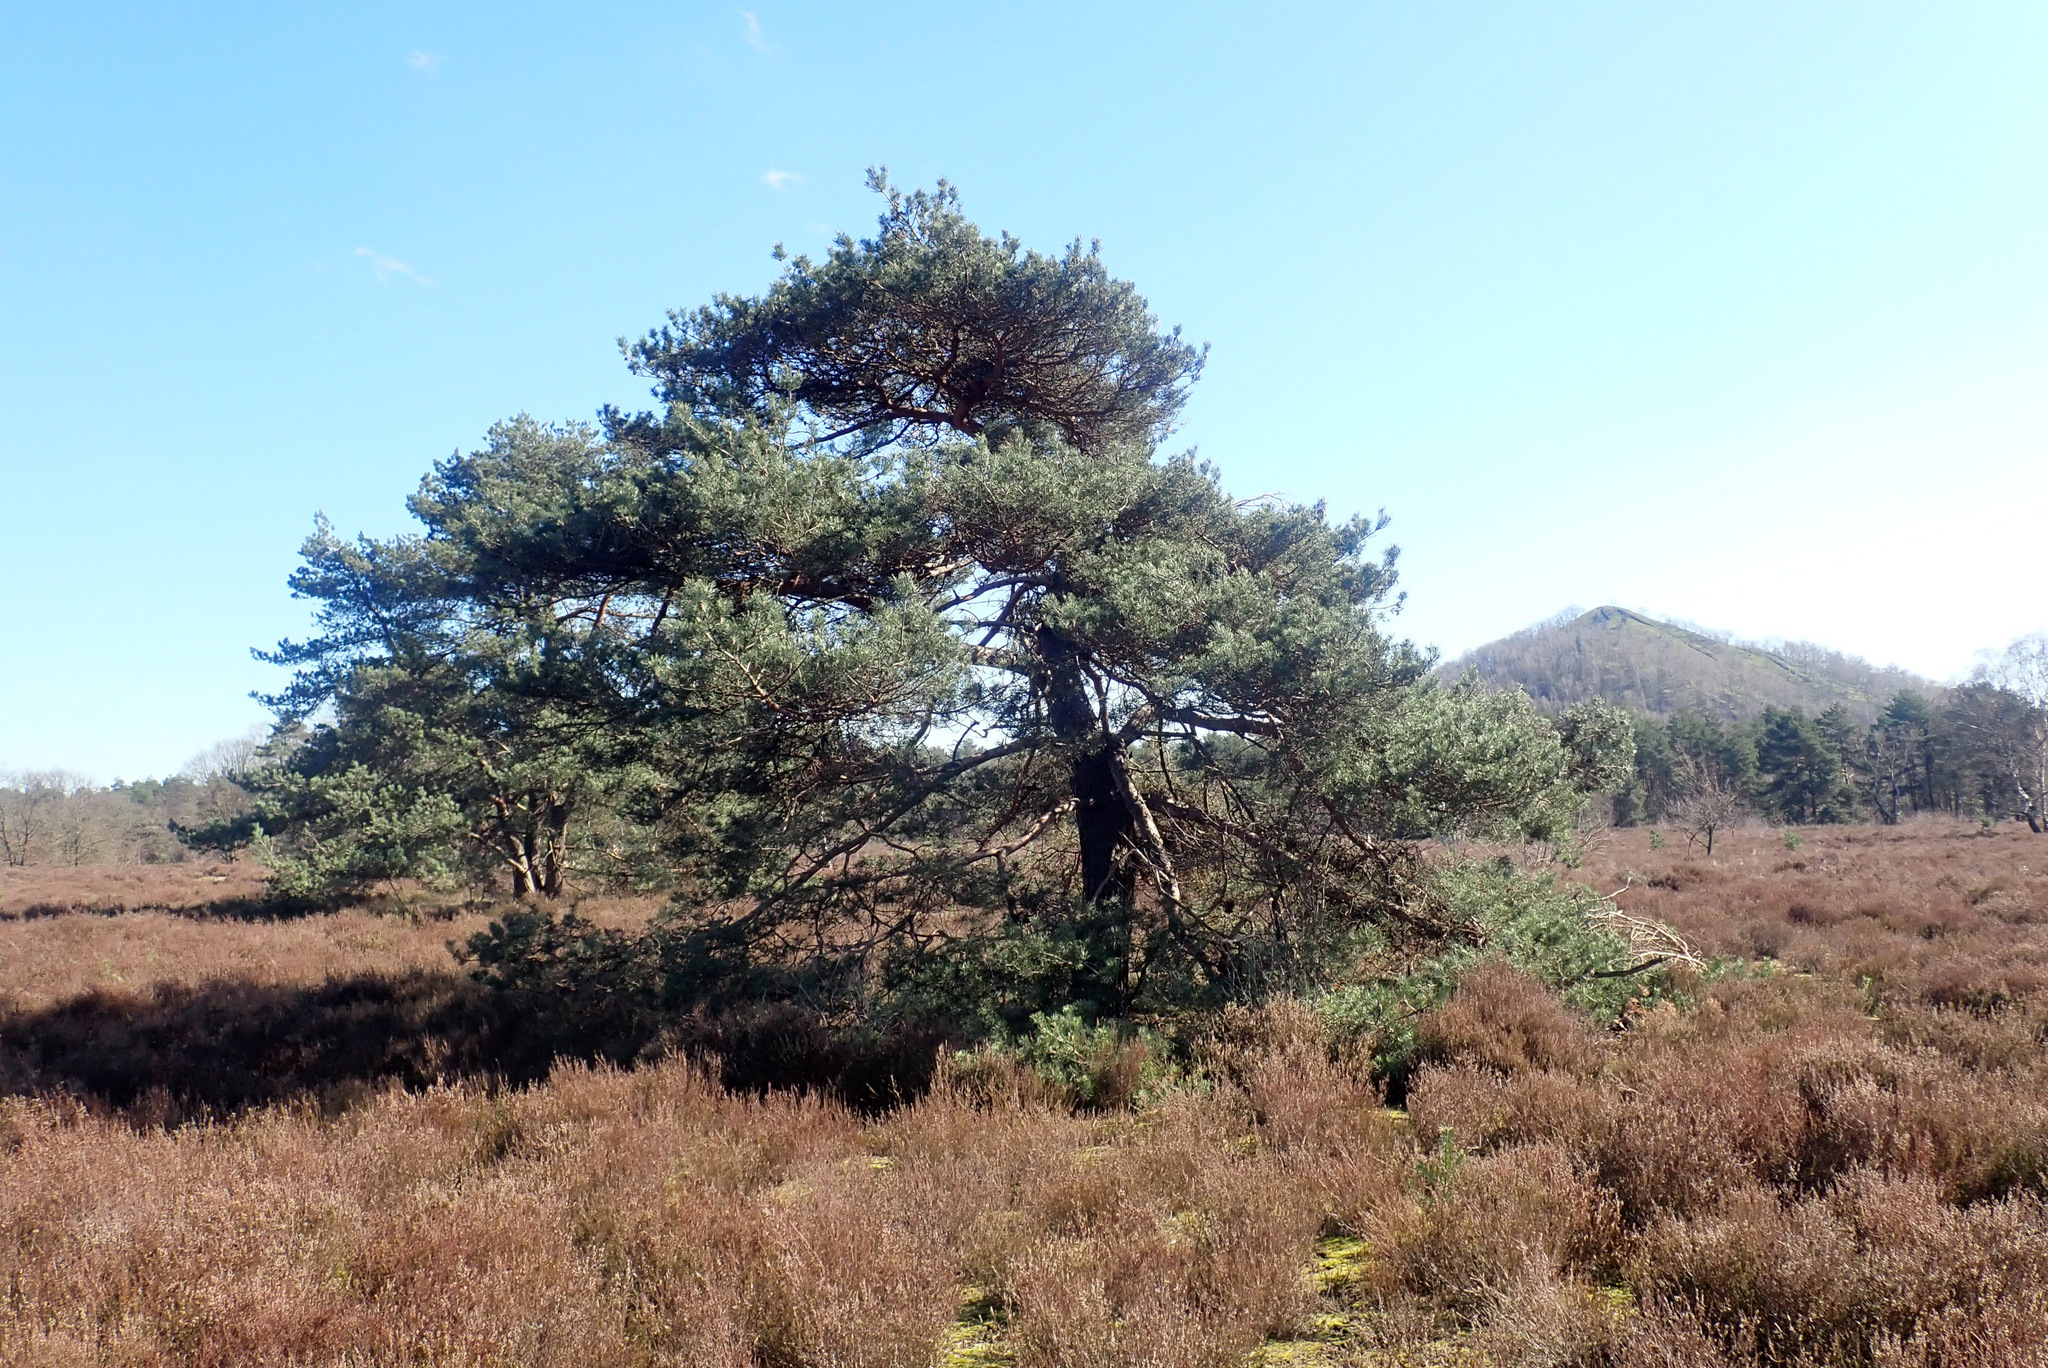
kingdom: Plantae
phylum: Tracheophyta
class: Pinopsida
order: Pinales
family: Pinaceae
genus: Pinus
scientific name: Pinus sylvestris
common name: Scots pine
